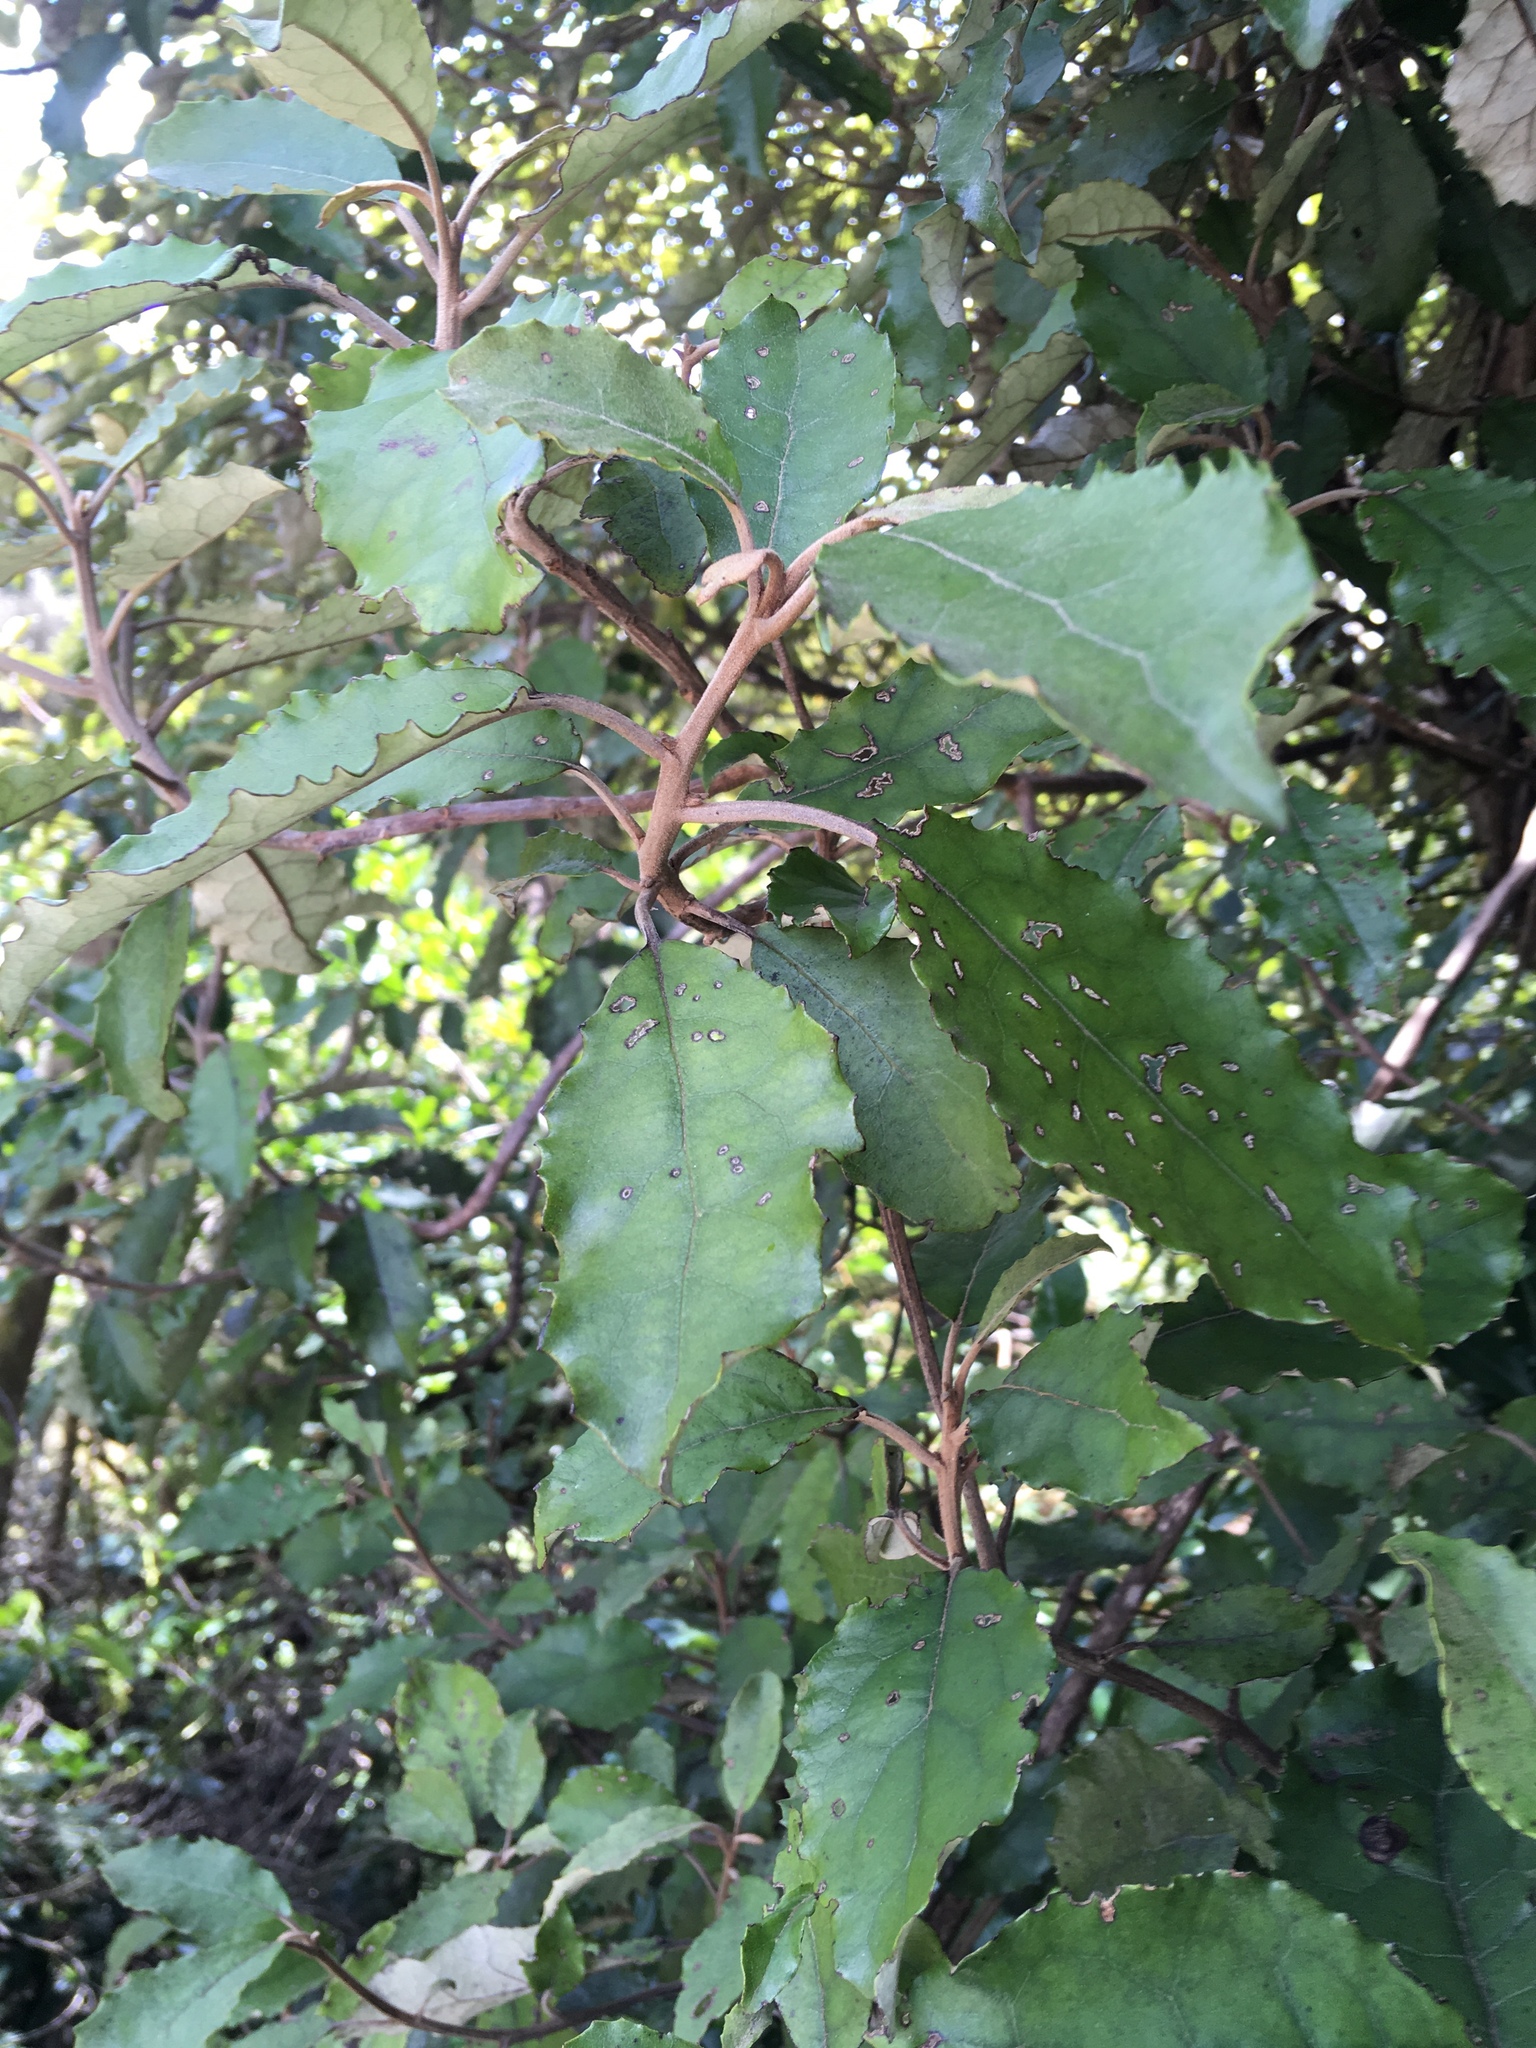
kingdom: Plantae
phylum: Tracheophyta
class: Magnoliopsida
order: Asterales
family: Asteraceae
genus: Olearia
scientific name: Olearia rani
